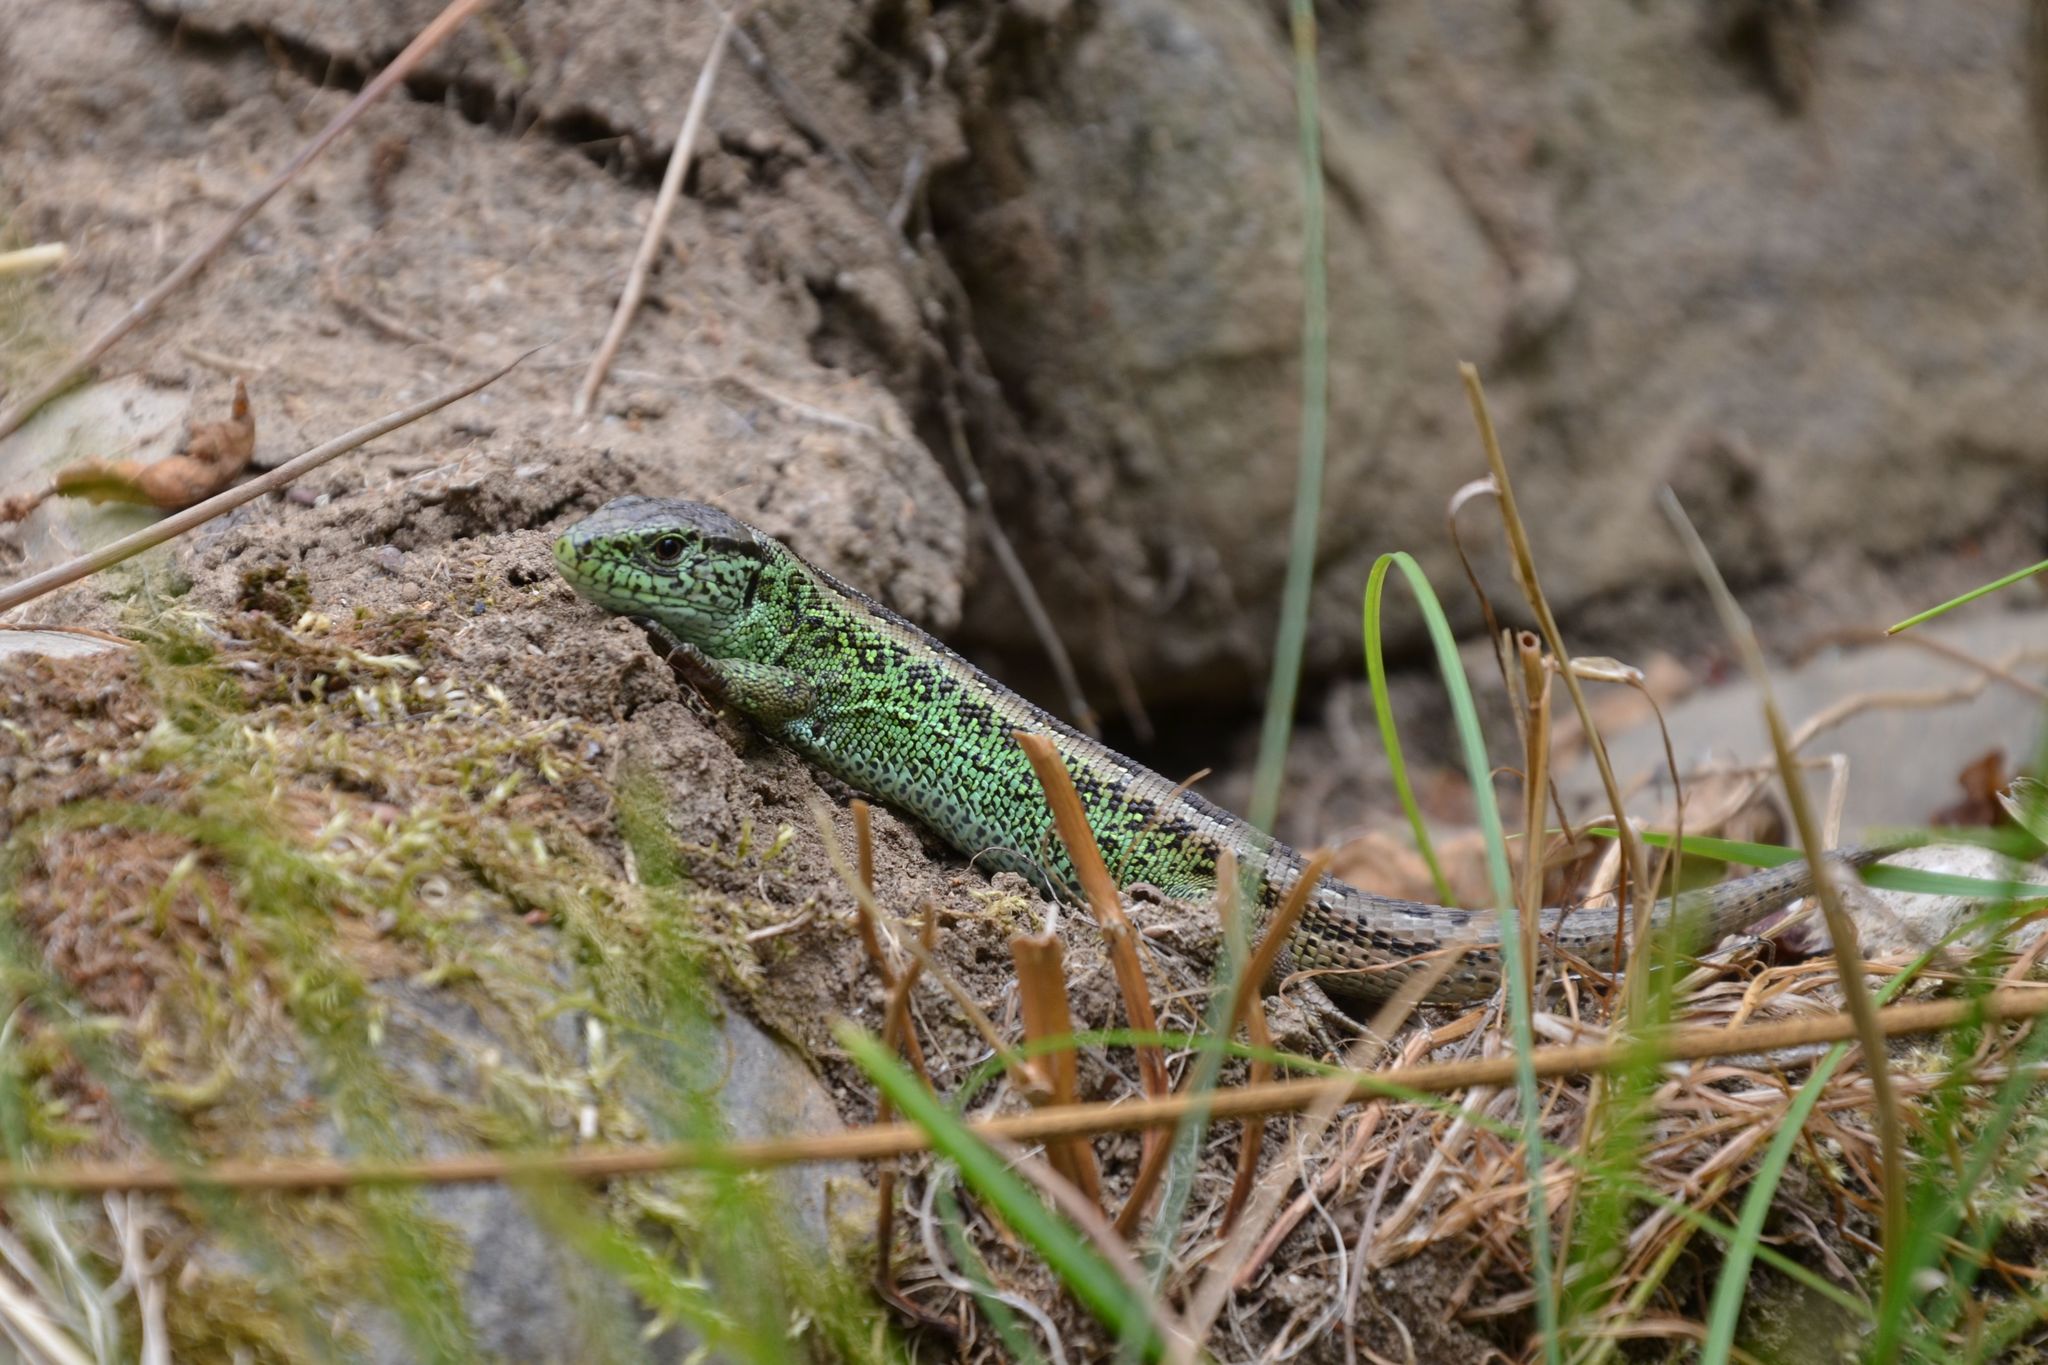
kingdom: Animalia
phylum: Chordata
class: Squamata
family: Lacertidae
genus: Lacerta
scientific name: Lacerta agilis
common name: Sand lizard
